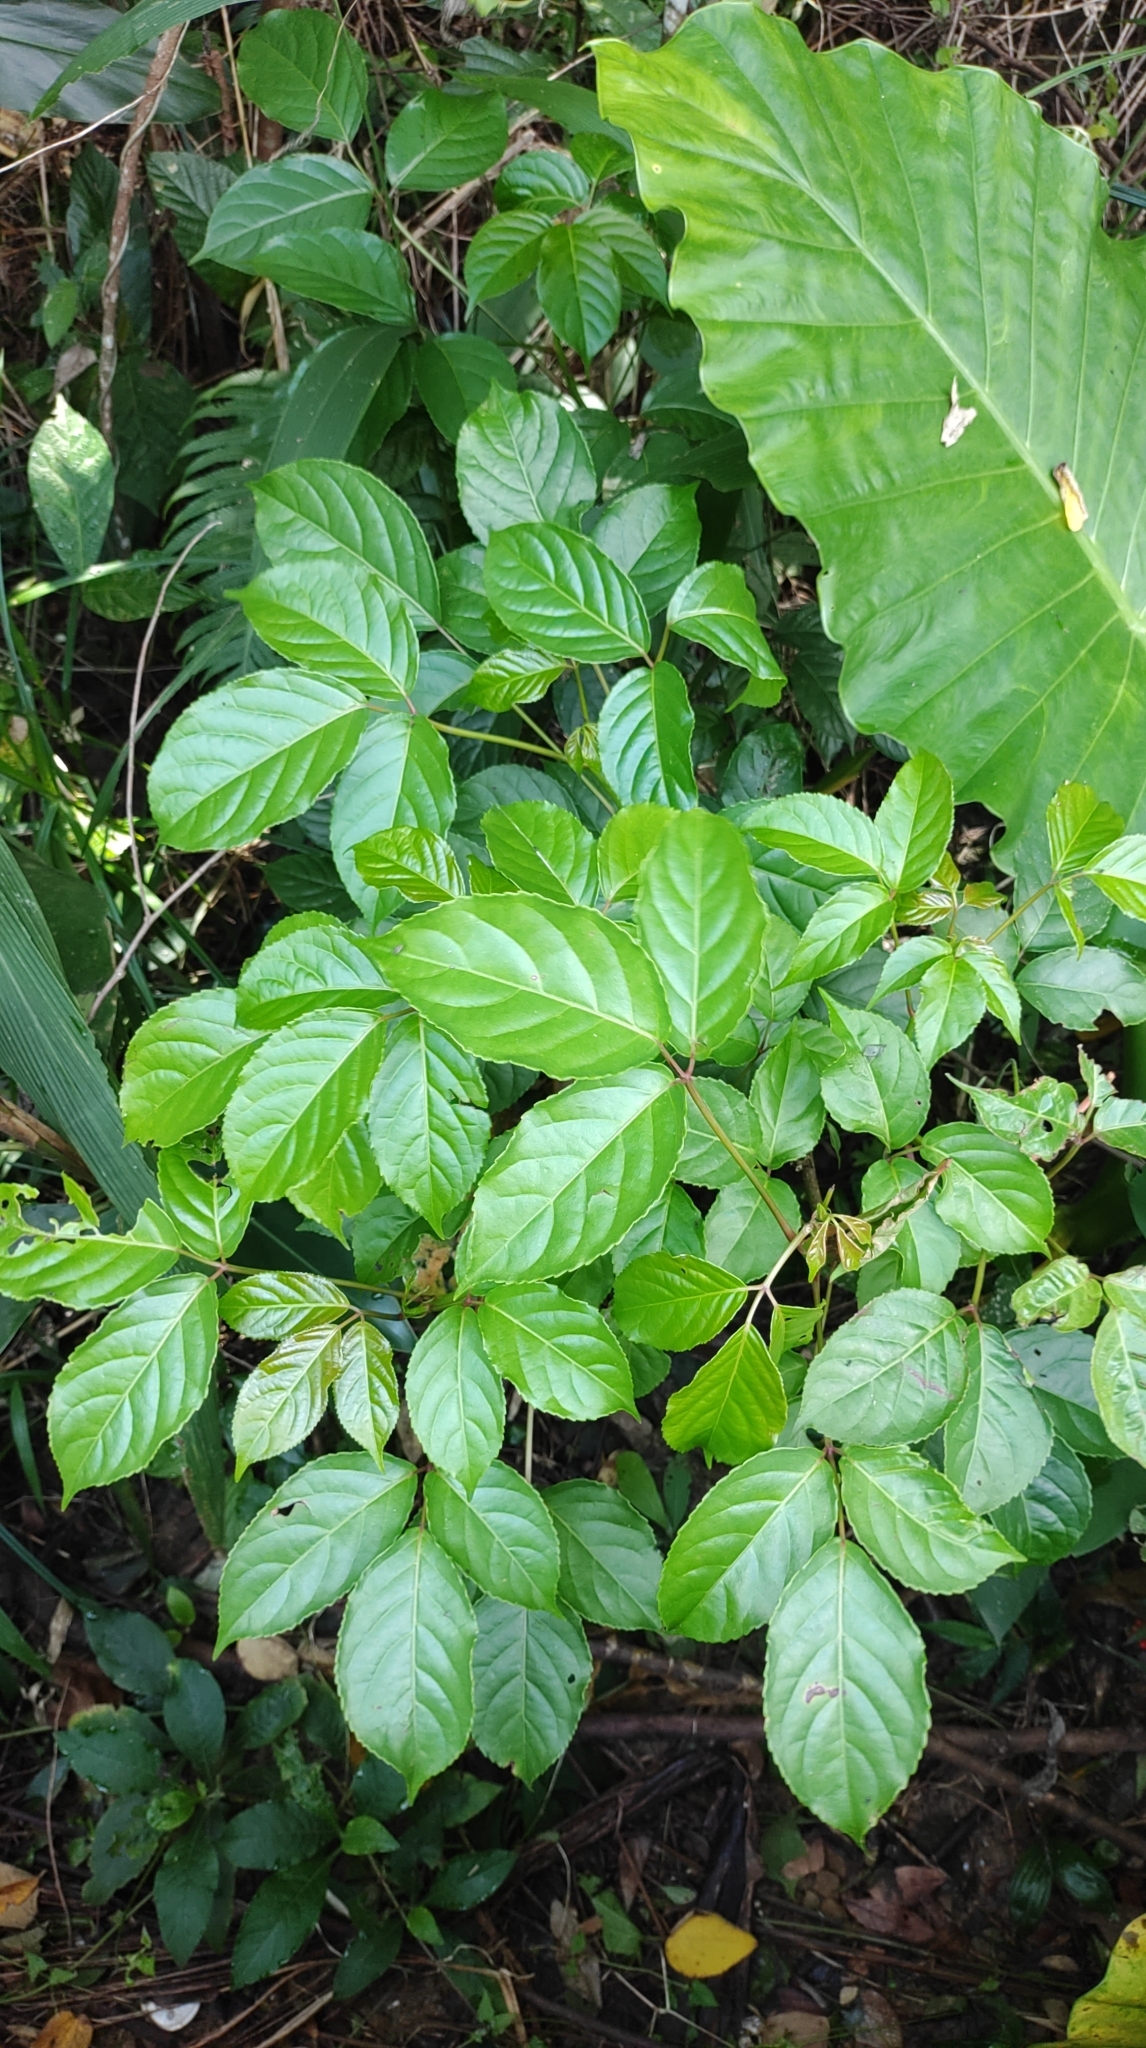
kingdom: Plantae
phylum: Tracheophyta
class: Magnoliopsida
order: Malpighiales
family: Phyllanthaceae
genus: Bischofia
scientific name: Bischofia javanica
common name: Javanese bishopwood
